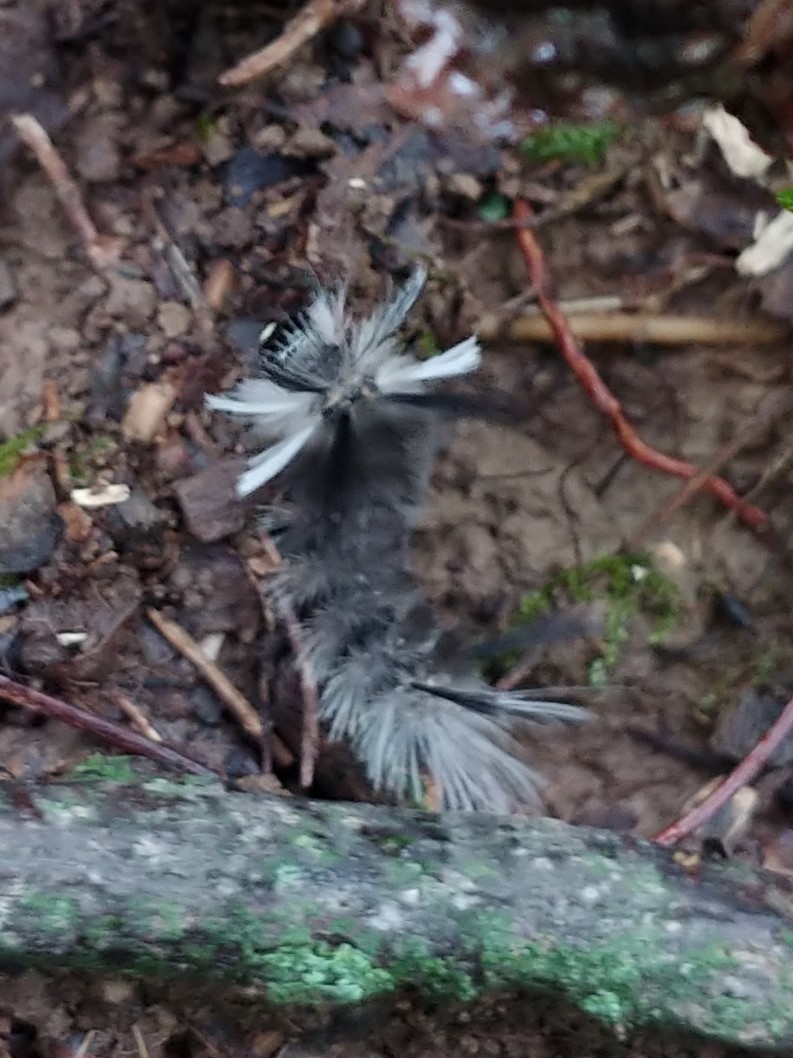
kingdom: Animalia
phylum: Arthropoda
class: Insecta
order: Lepidoptera
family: Erebidae
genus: Halysidota
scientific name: Halysidota tessellaris
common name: Banded tussock moth
